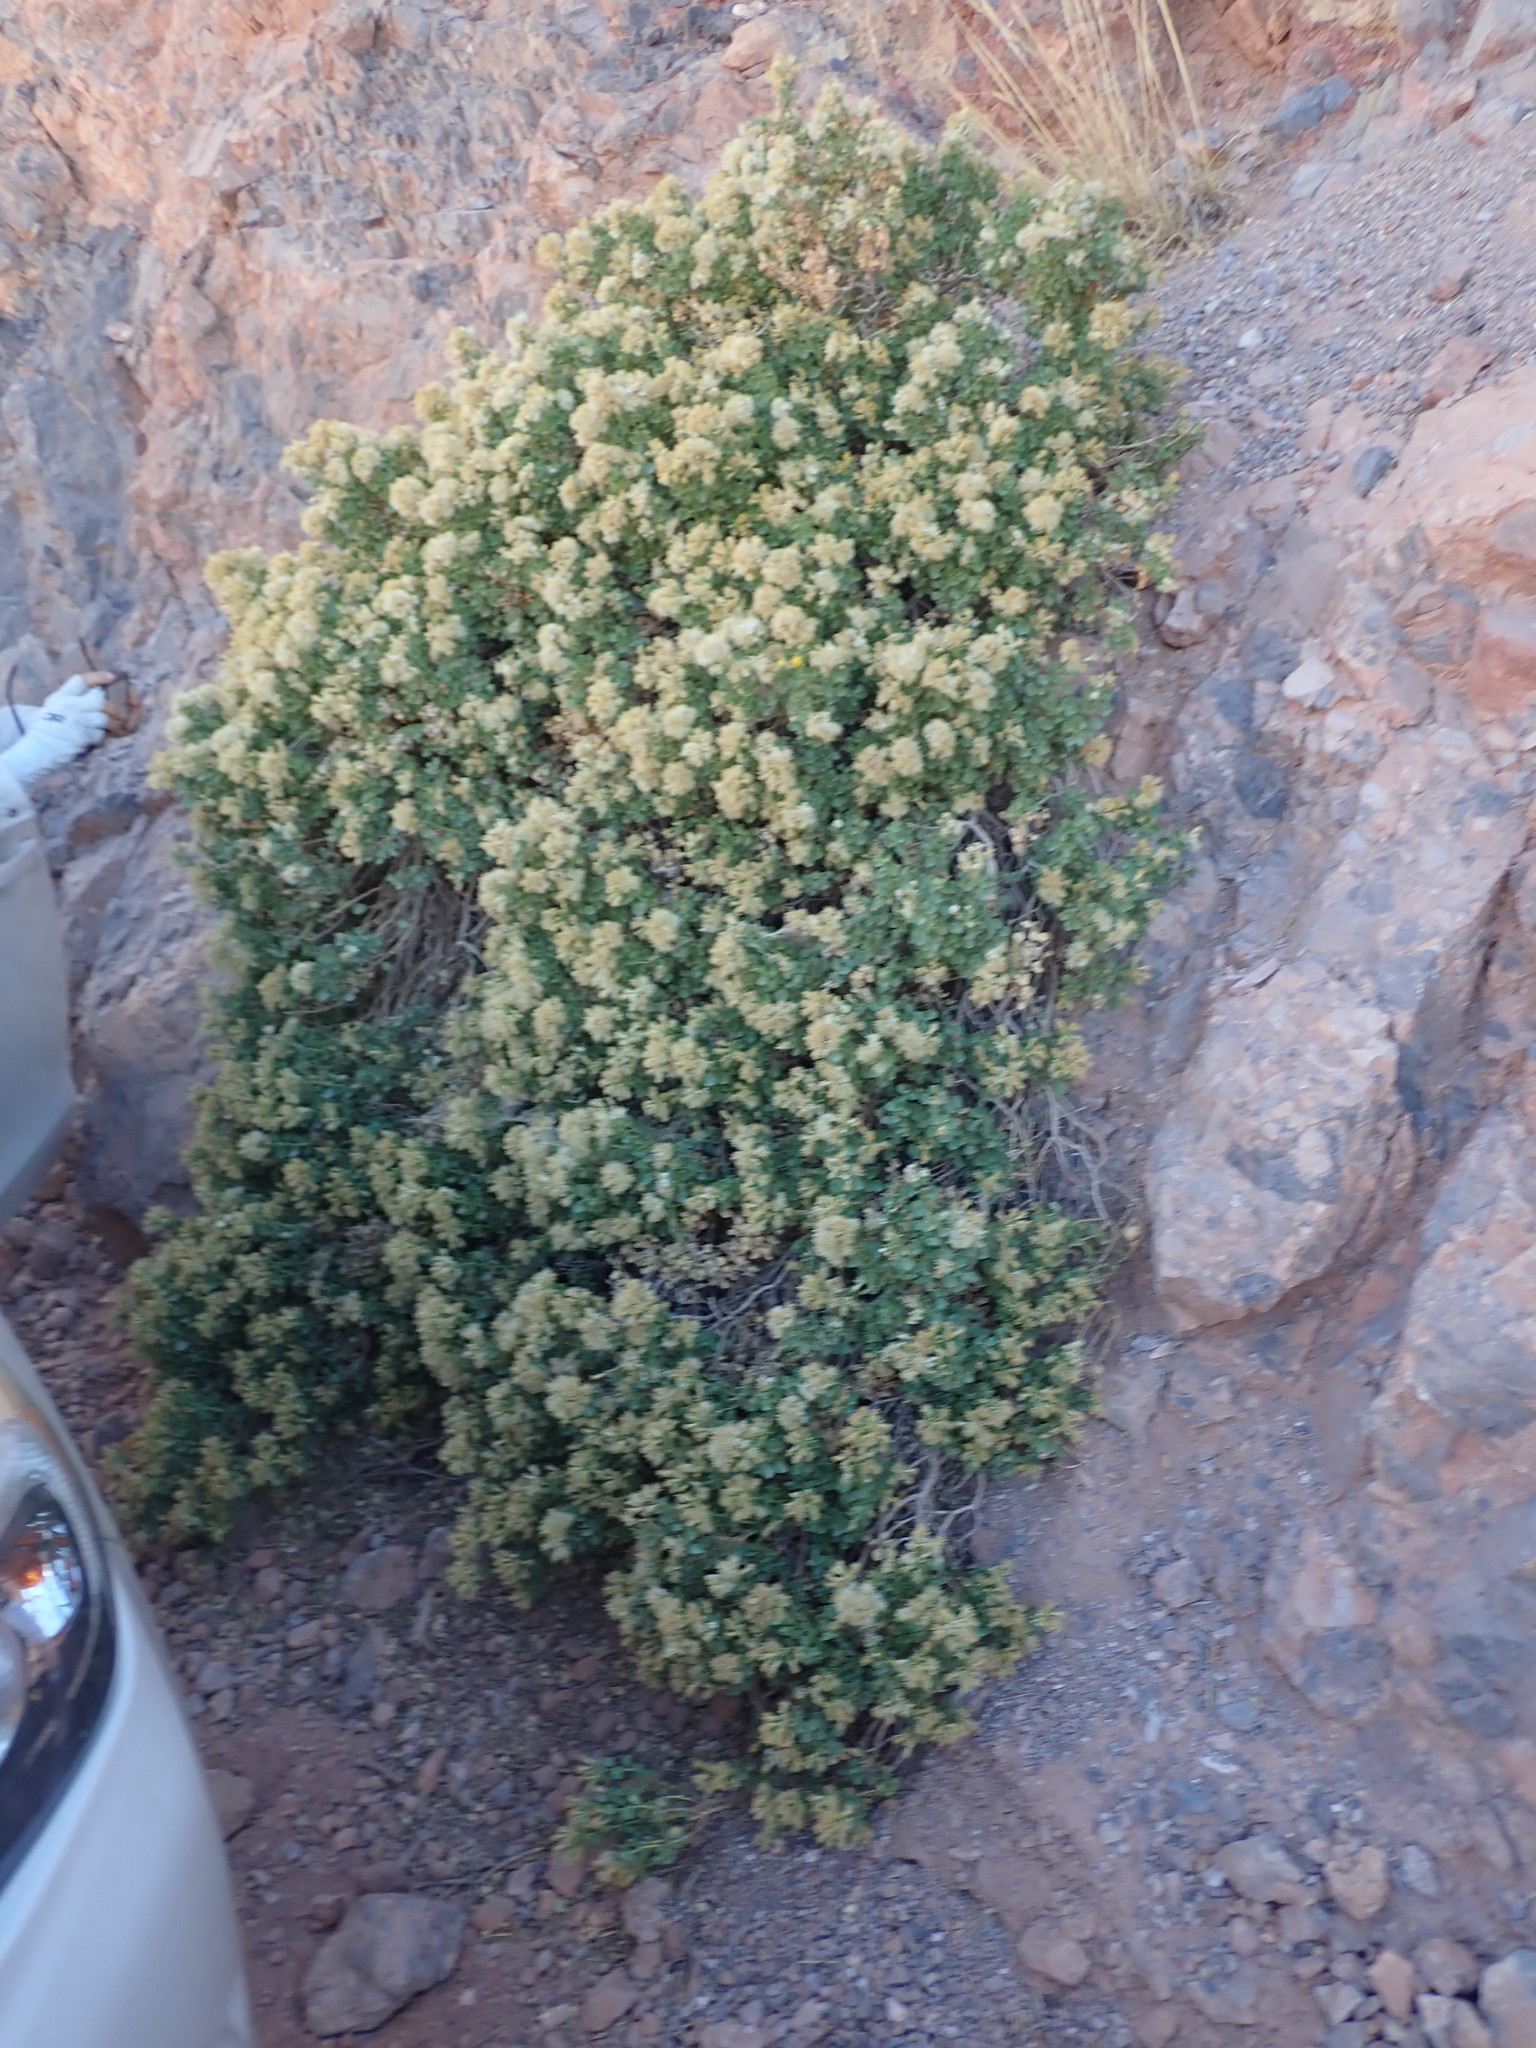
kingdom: Plantae
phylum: Tracheophyta
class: Magnoliopsida
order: Asterales
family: Asteraceae
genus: Ericameria
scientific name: Ericameria cuneata
